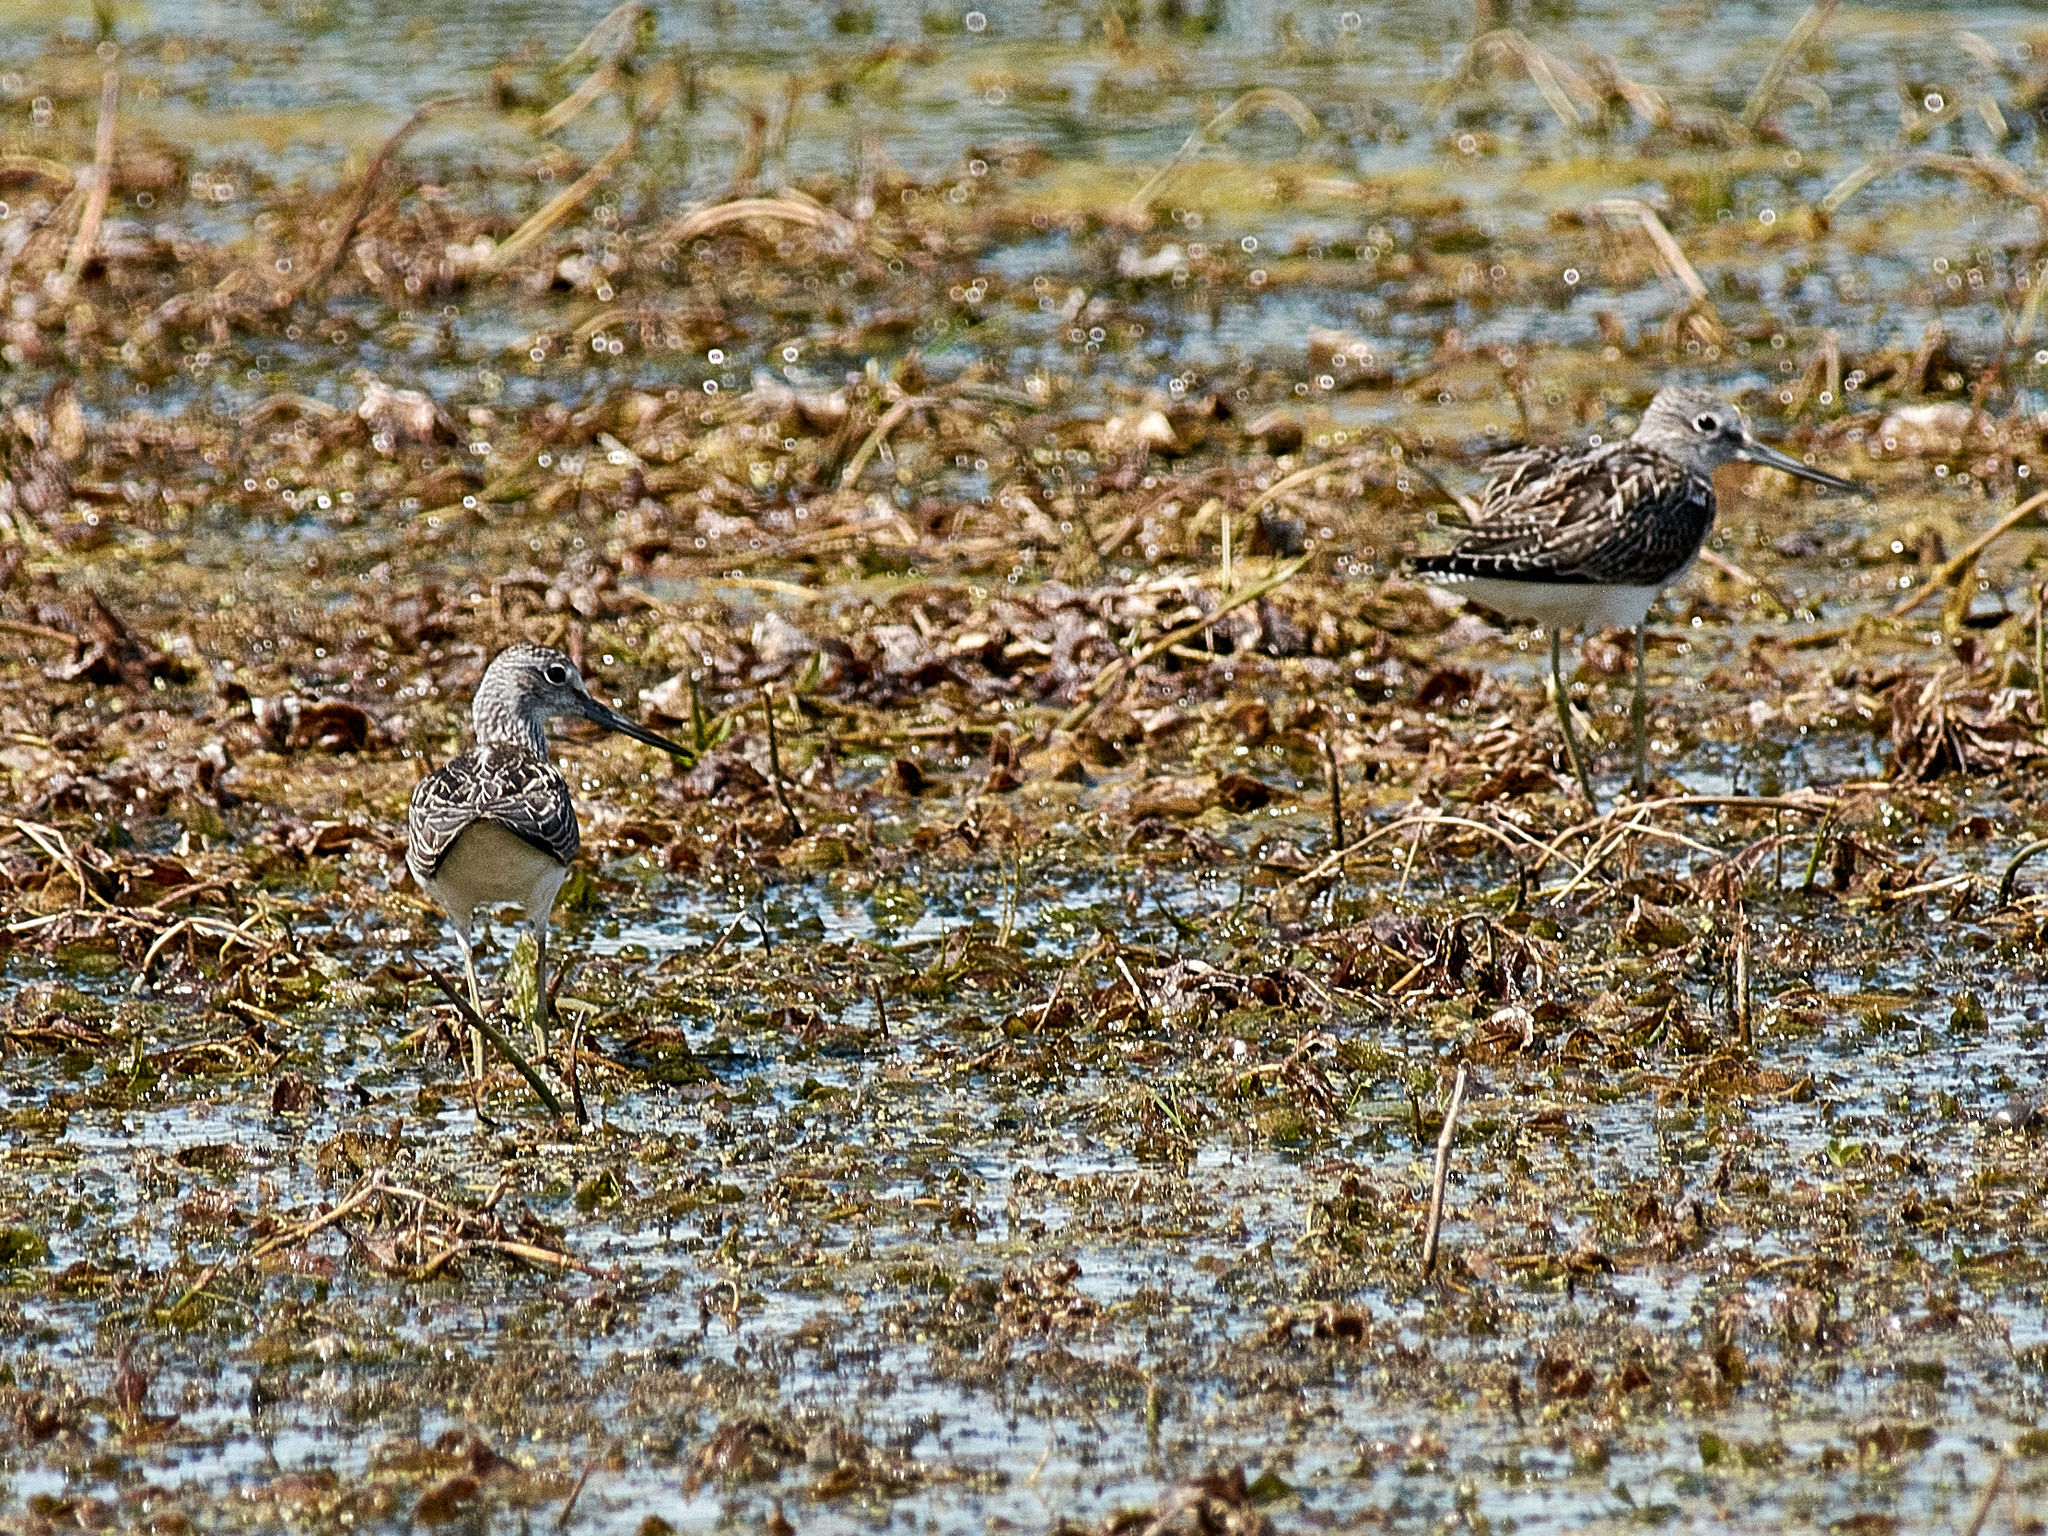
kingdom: Animalia
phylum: Chordata
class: Aves
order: Charadriiformes
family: Scolopacidae
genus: Tringa
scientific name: Tringa nebularia
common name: Common greenshank
